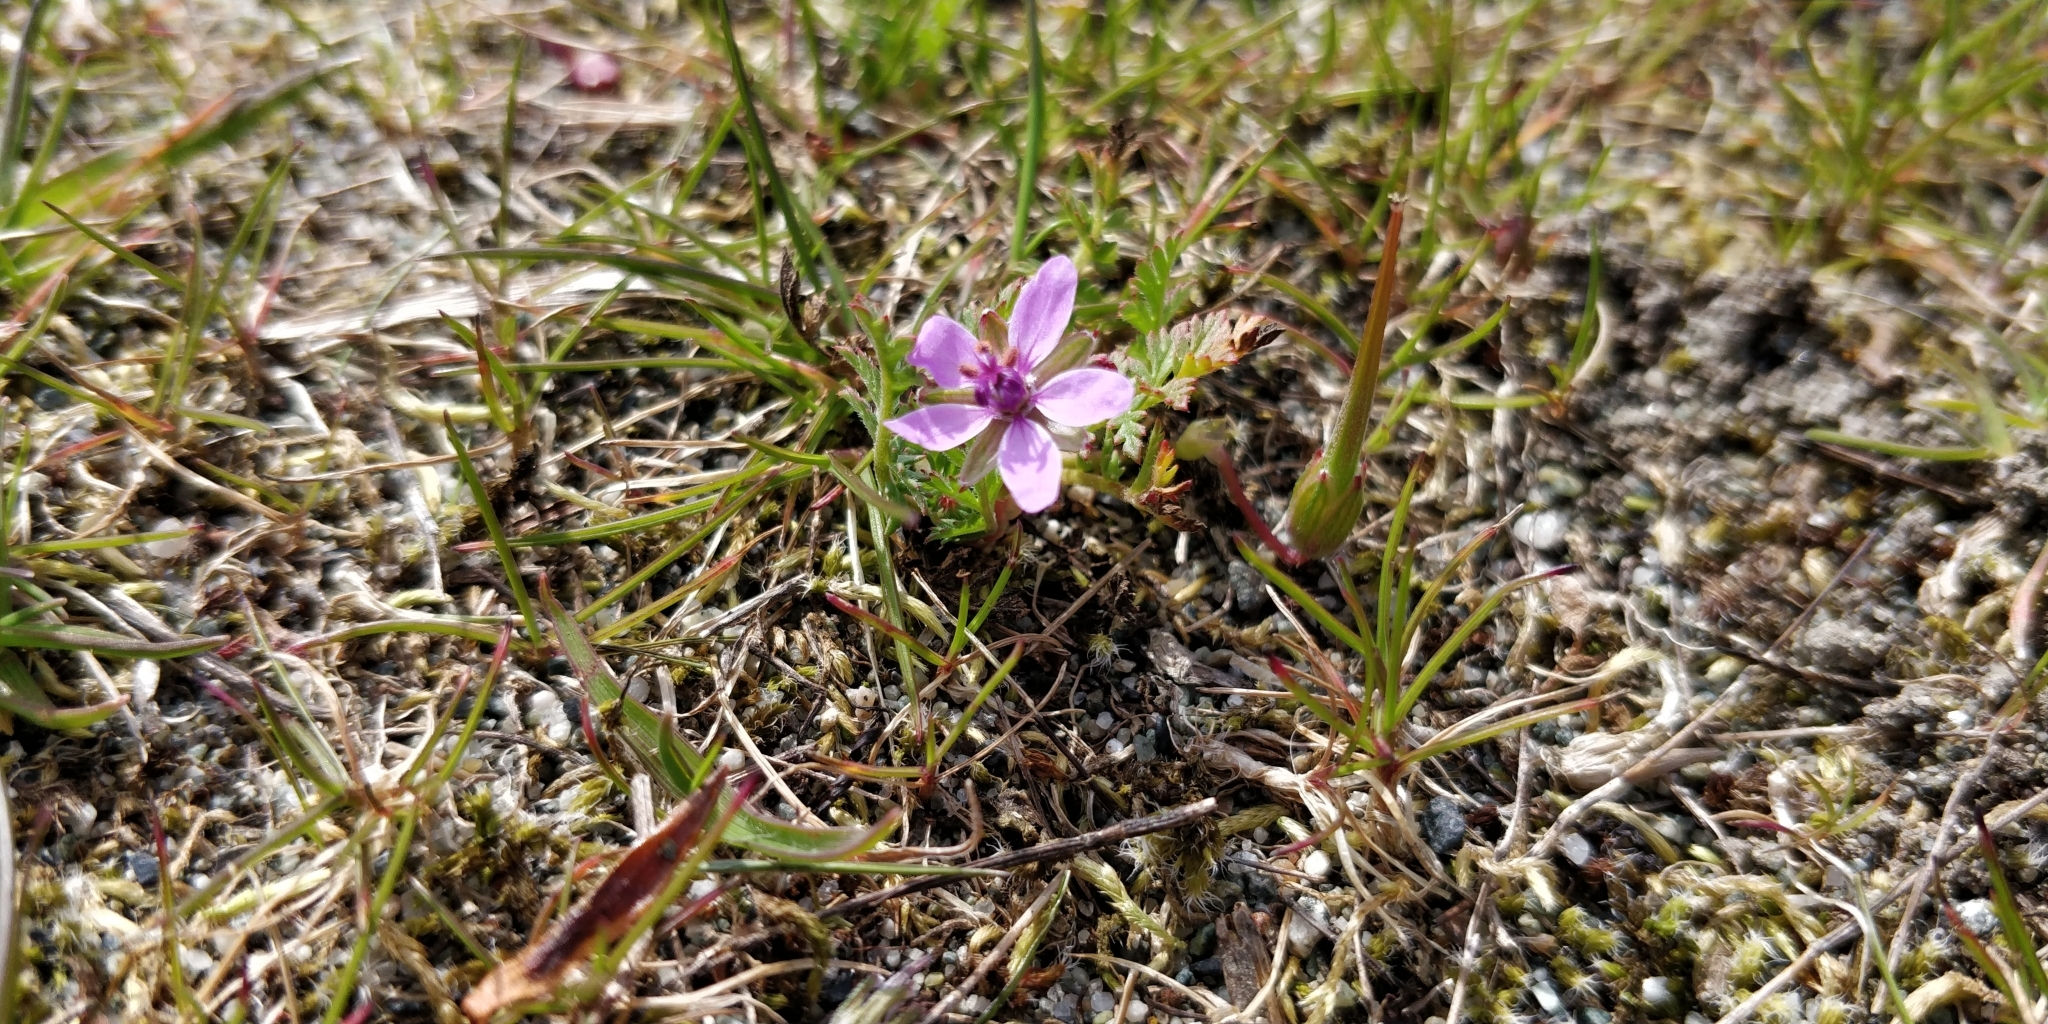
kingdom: Plantae
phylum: Tracheophyta
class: Magnoliopsida
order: Geraniales
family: Geraniaceae
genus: Erodium
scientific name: Erodium cicutarium
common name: Common stork's-bill
